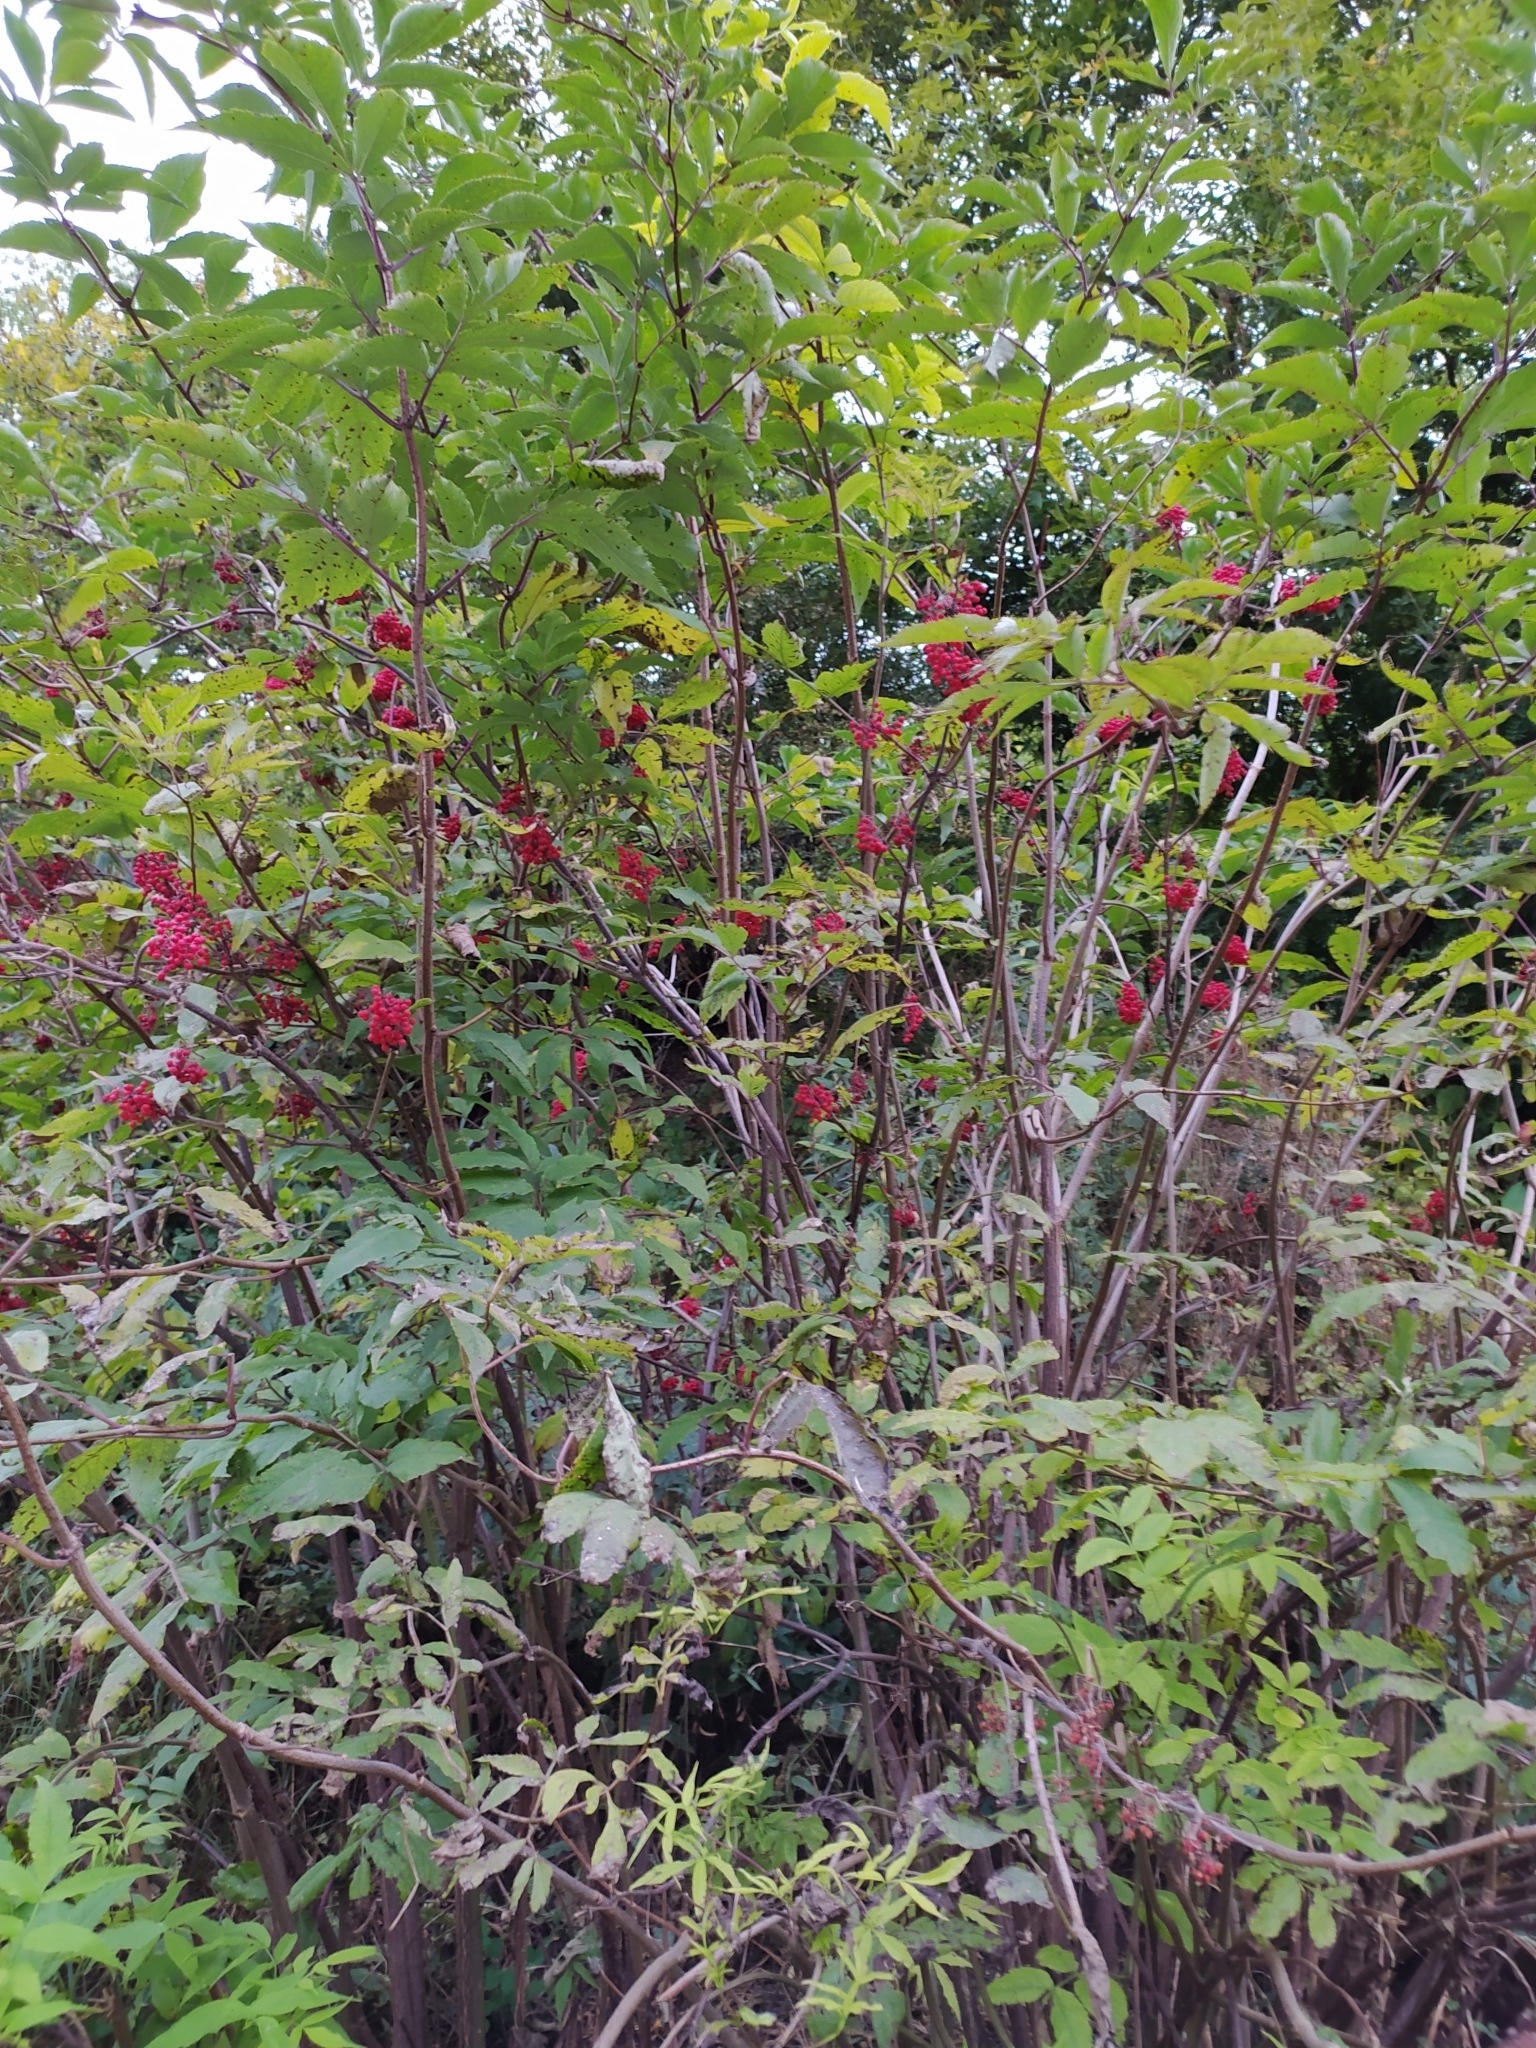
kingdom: Plantae
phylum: Tracheophyta
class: Magnoliopsida
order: Dipsacales
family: Viburnaceae
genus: Sambucus
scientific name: Sambucus racemosa
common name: Red-berried elder
